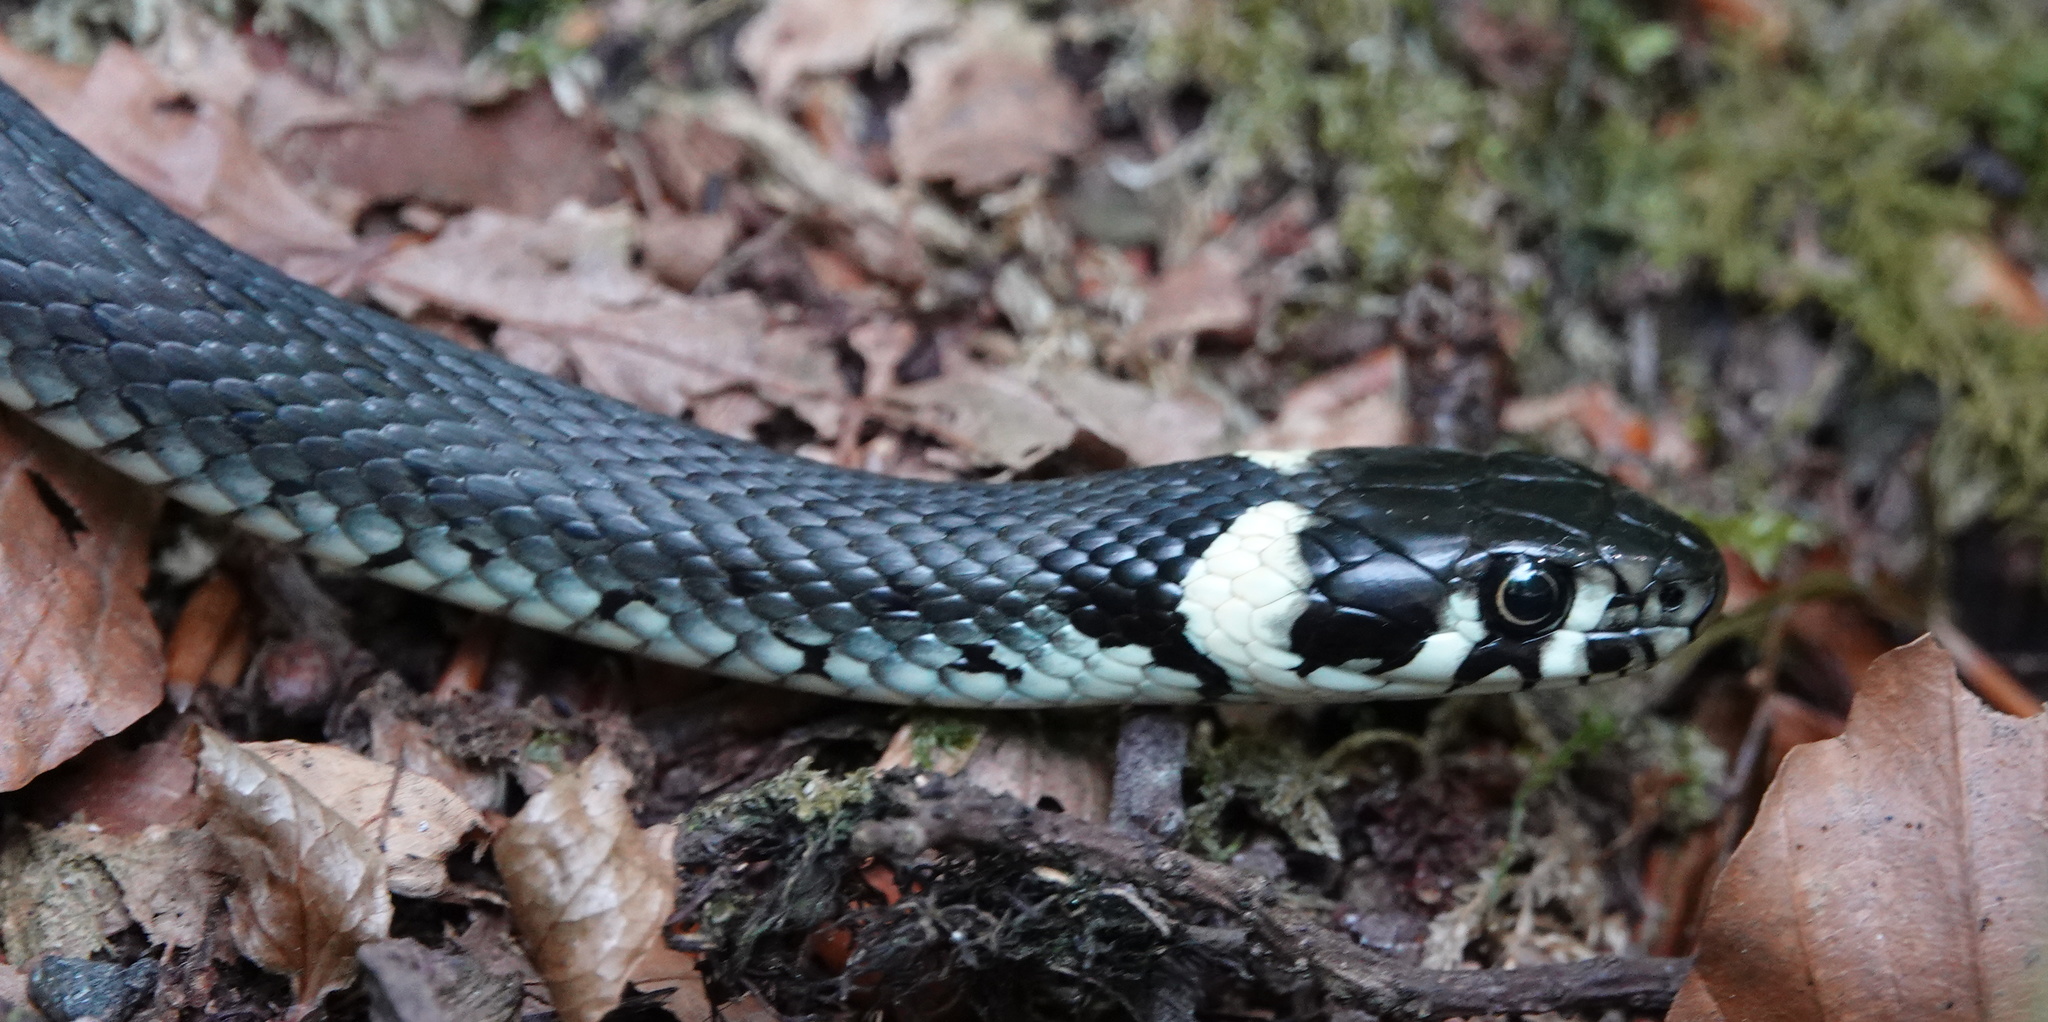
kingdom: Animalia
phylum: Chordata
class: Squamata
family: Colubridae
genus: Natrix
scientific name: Natrix natrix
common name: Grass snake
